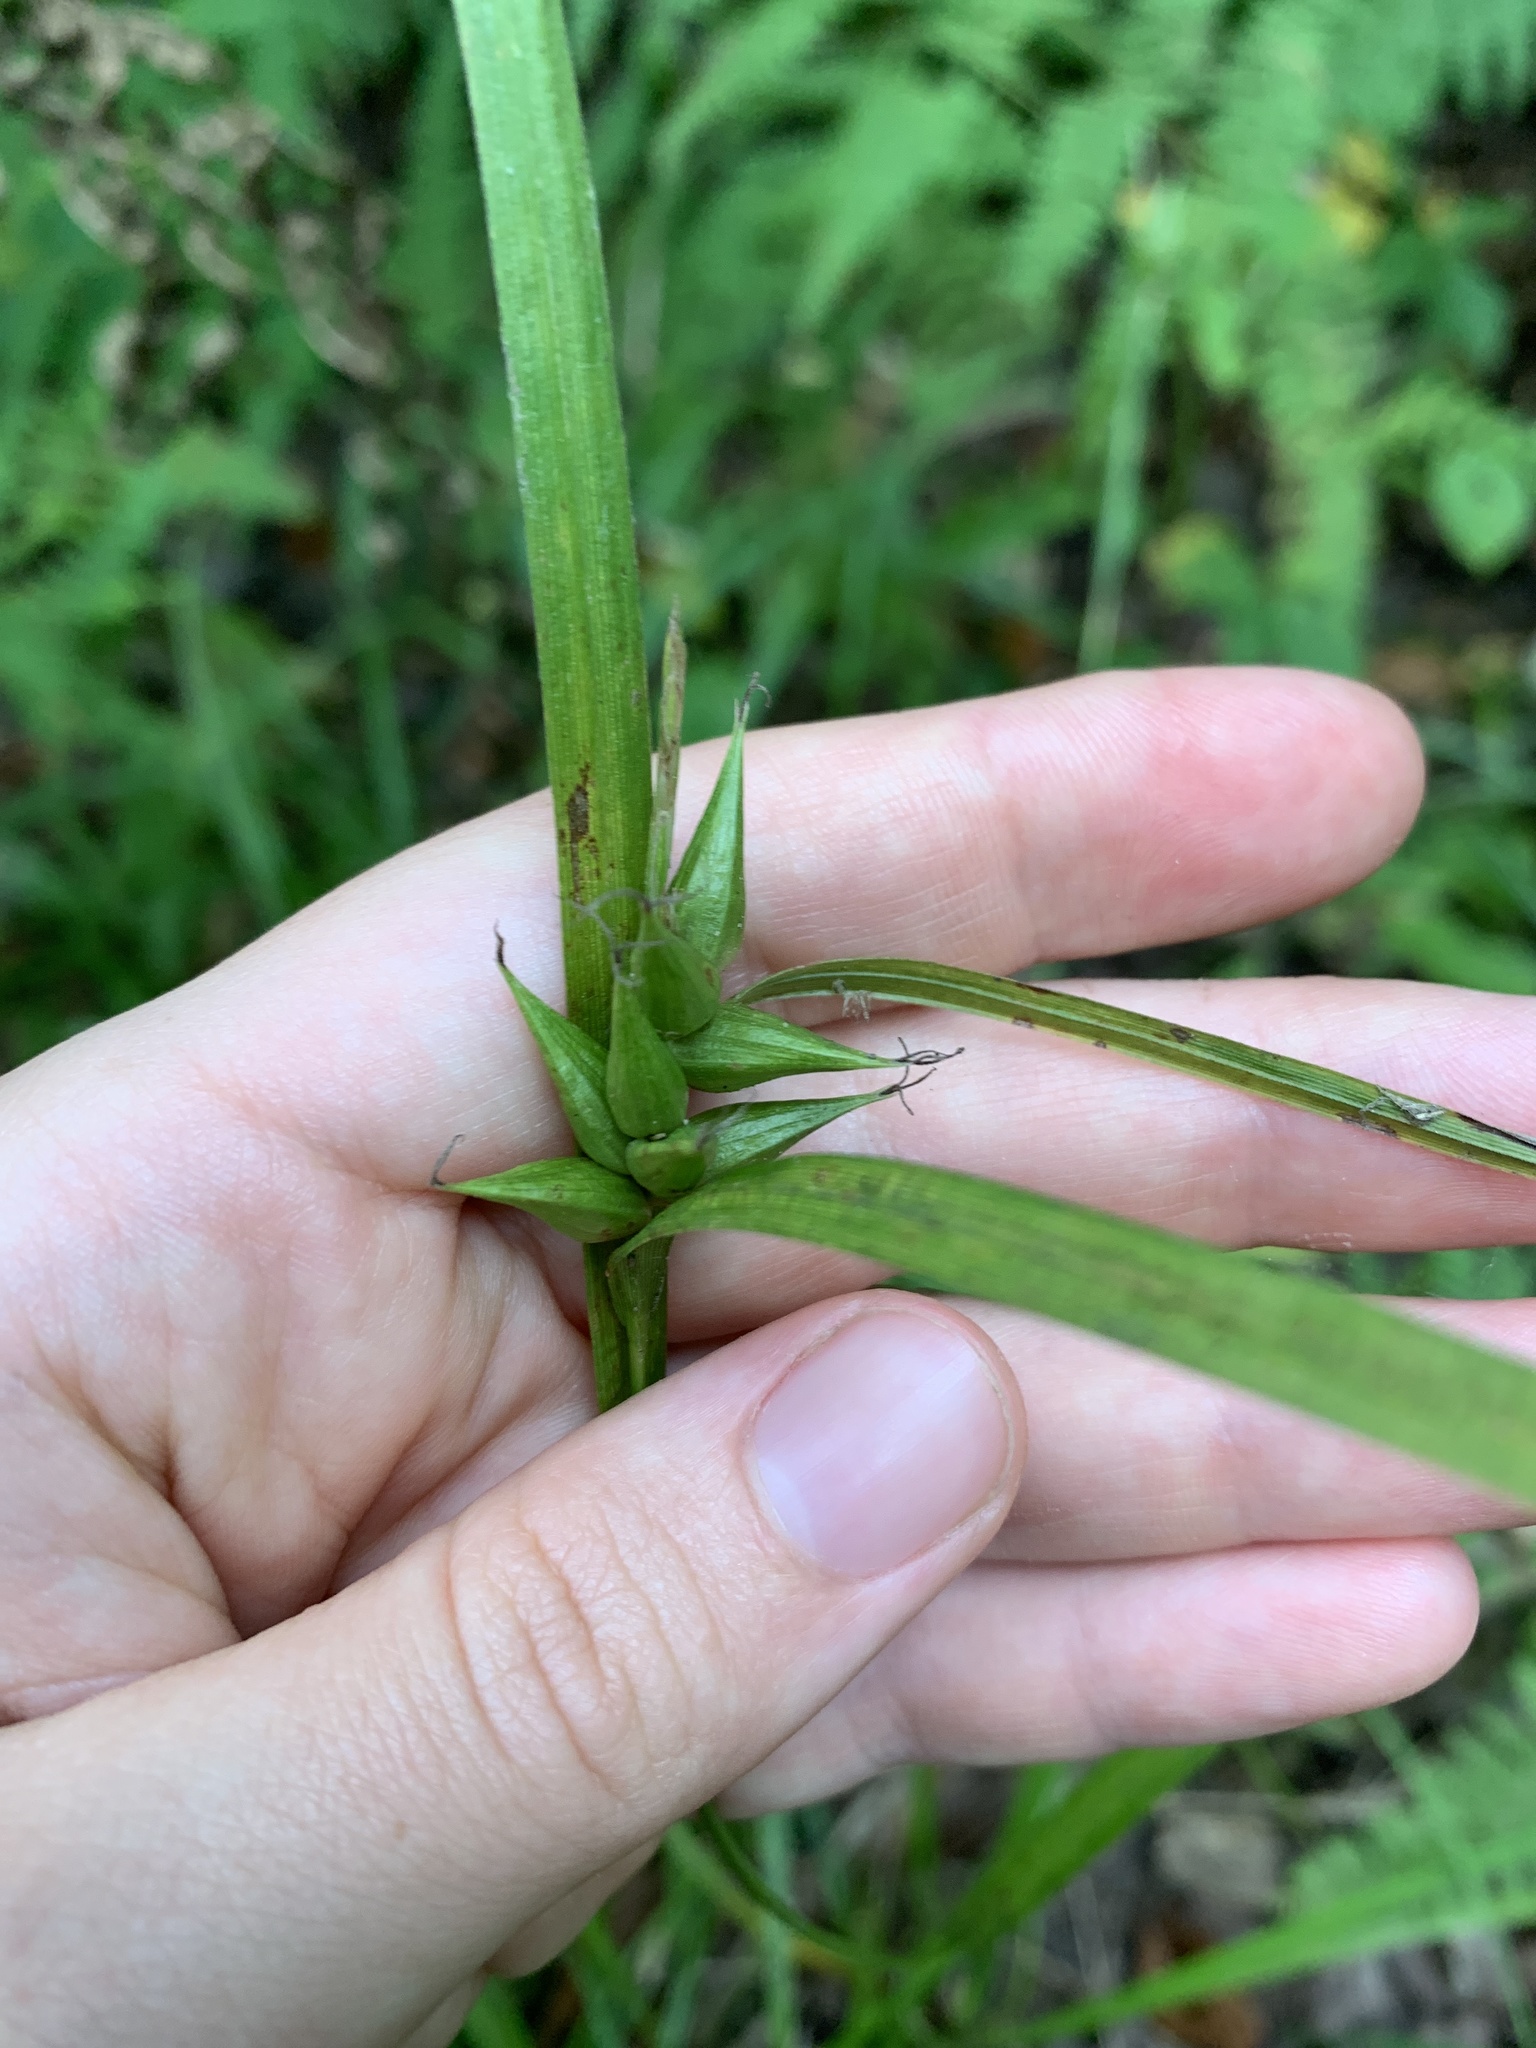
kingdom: Plantae
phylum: Tracheophyta
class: Liliopsida
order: Poales
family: Cyperaceae
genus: Carex
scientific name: Carex intumescens
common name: Greater bladder sedge
